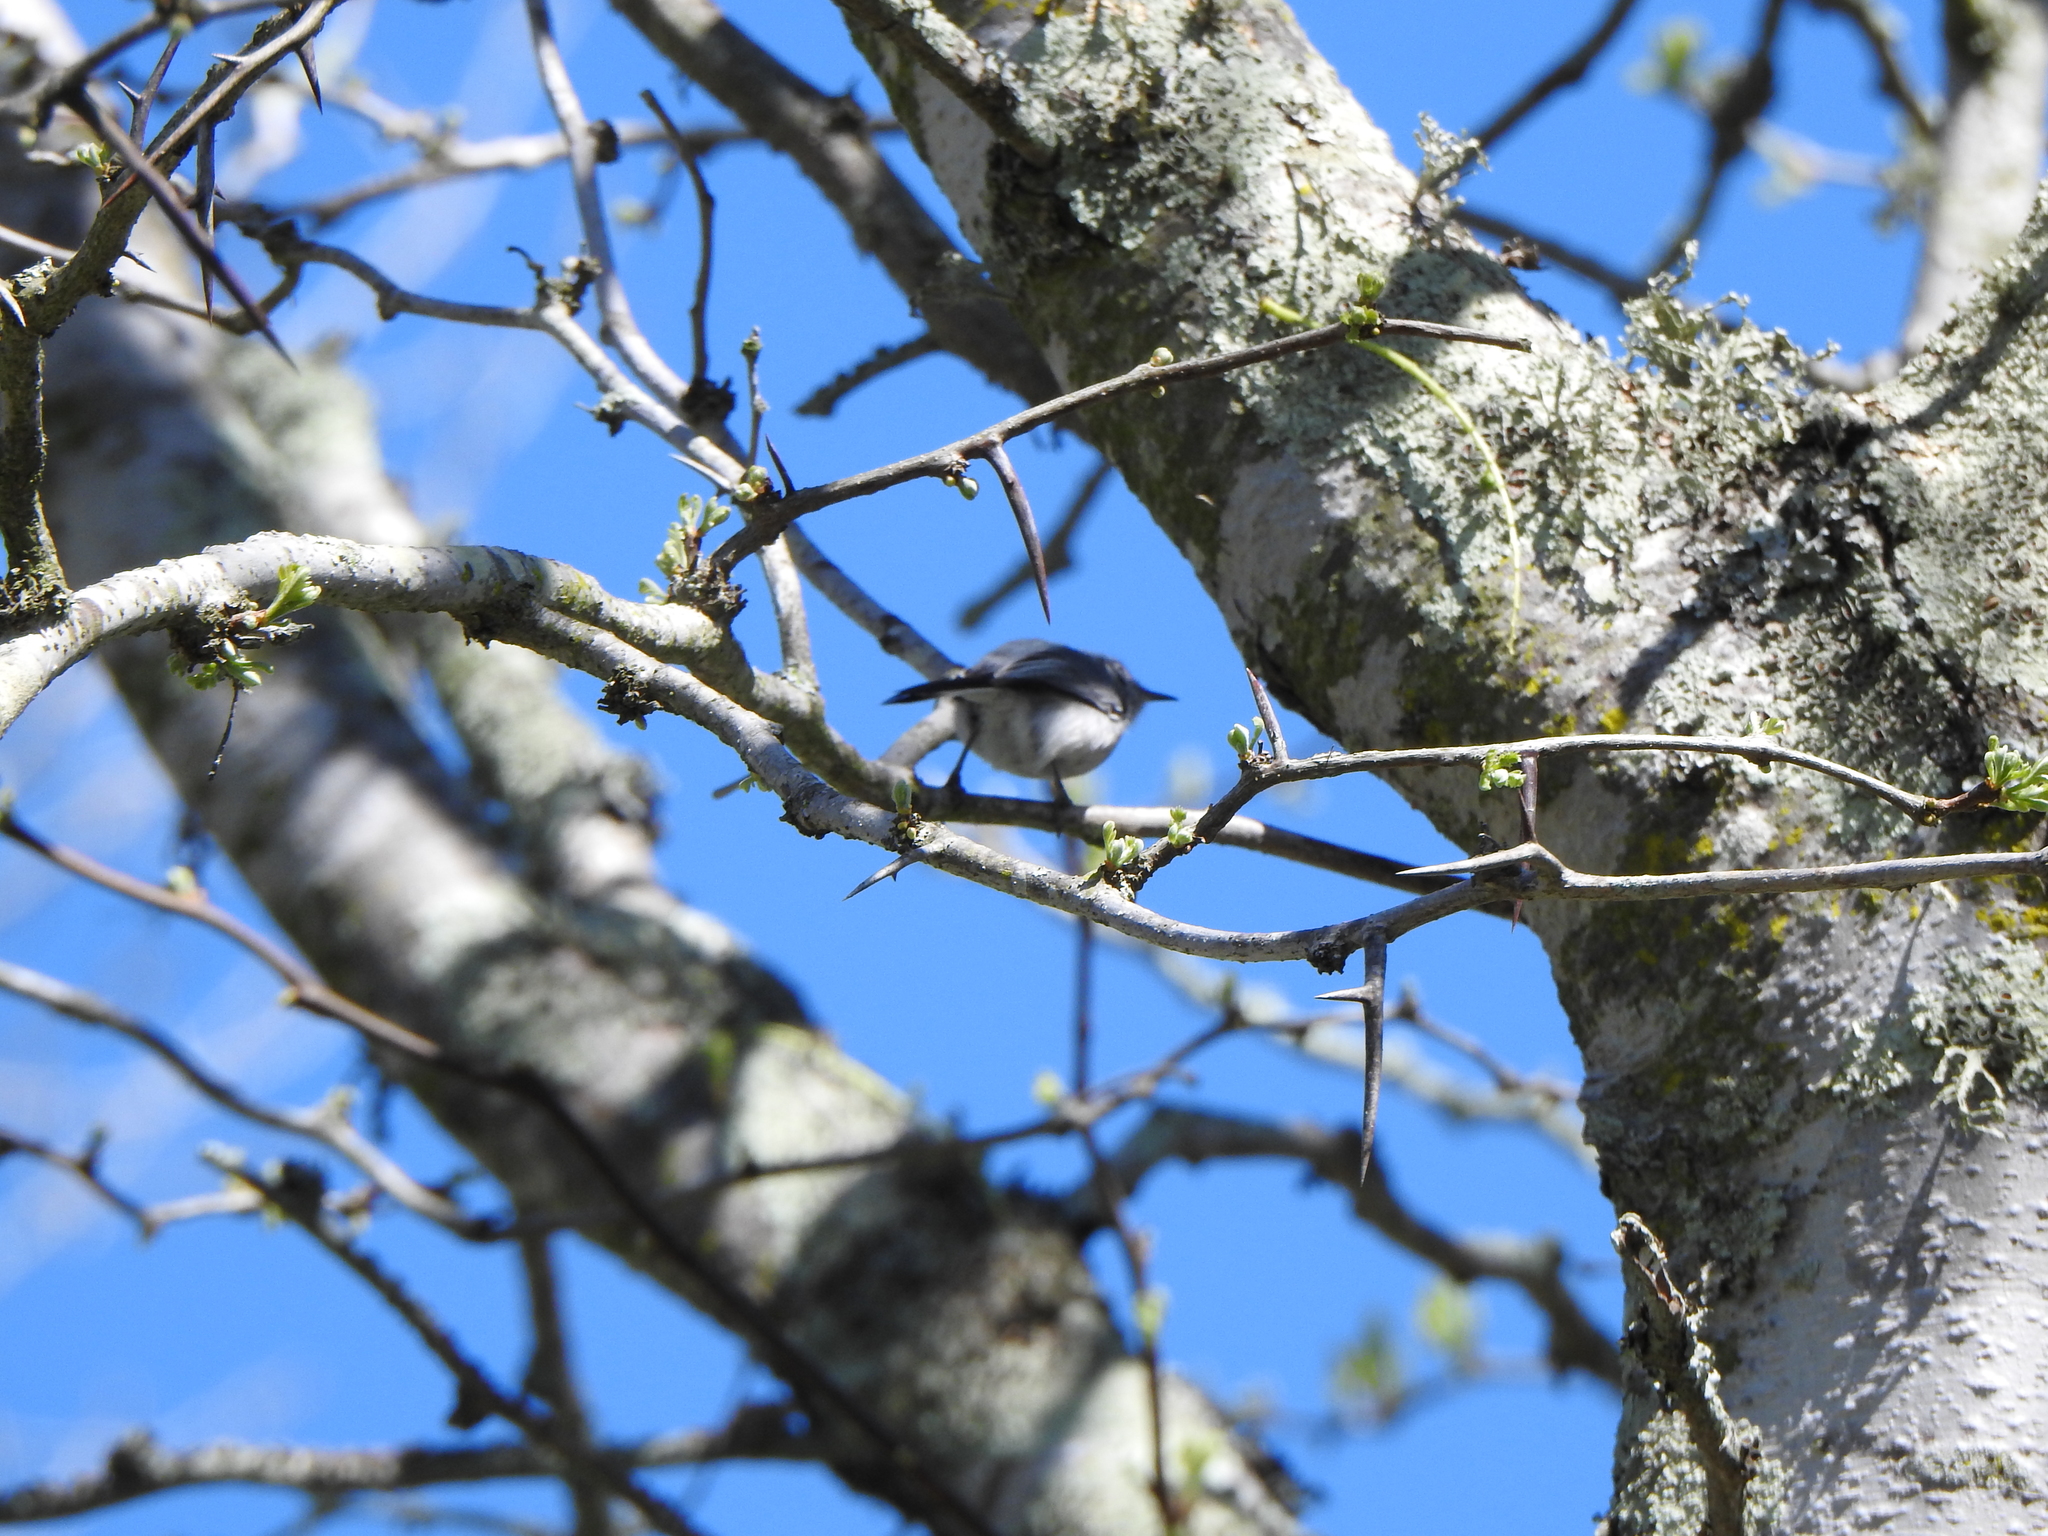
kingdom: Animalia
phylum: Chordata
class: Aves
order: Passeriformes
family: Polioptilidae
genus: Polioptila
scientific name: Polioptila dumicola
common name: Masked gnatcatcher
